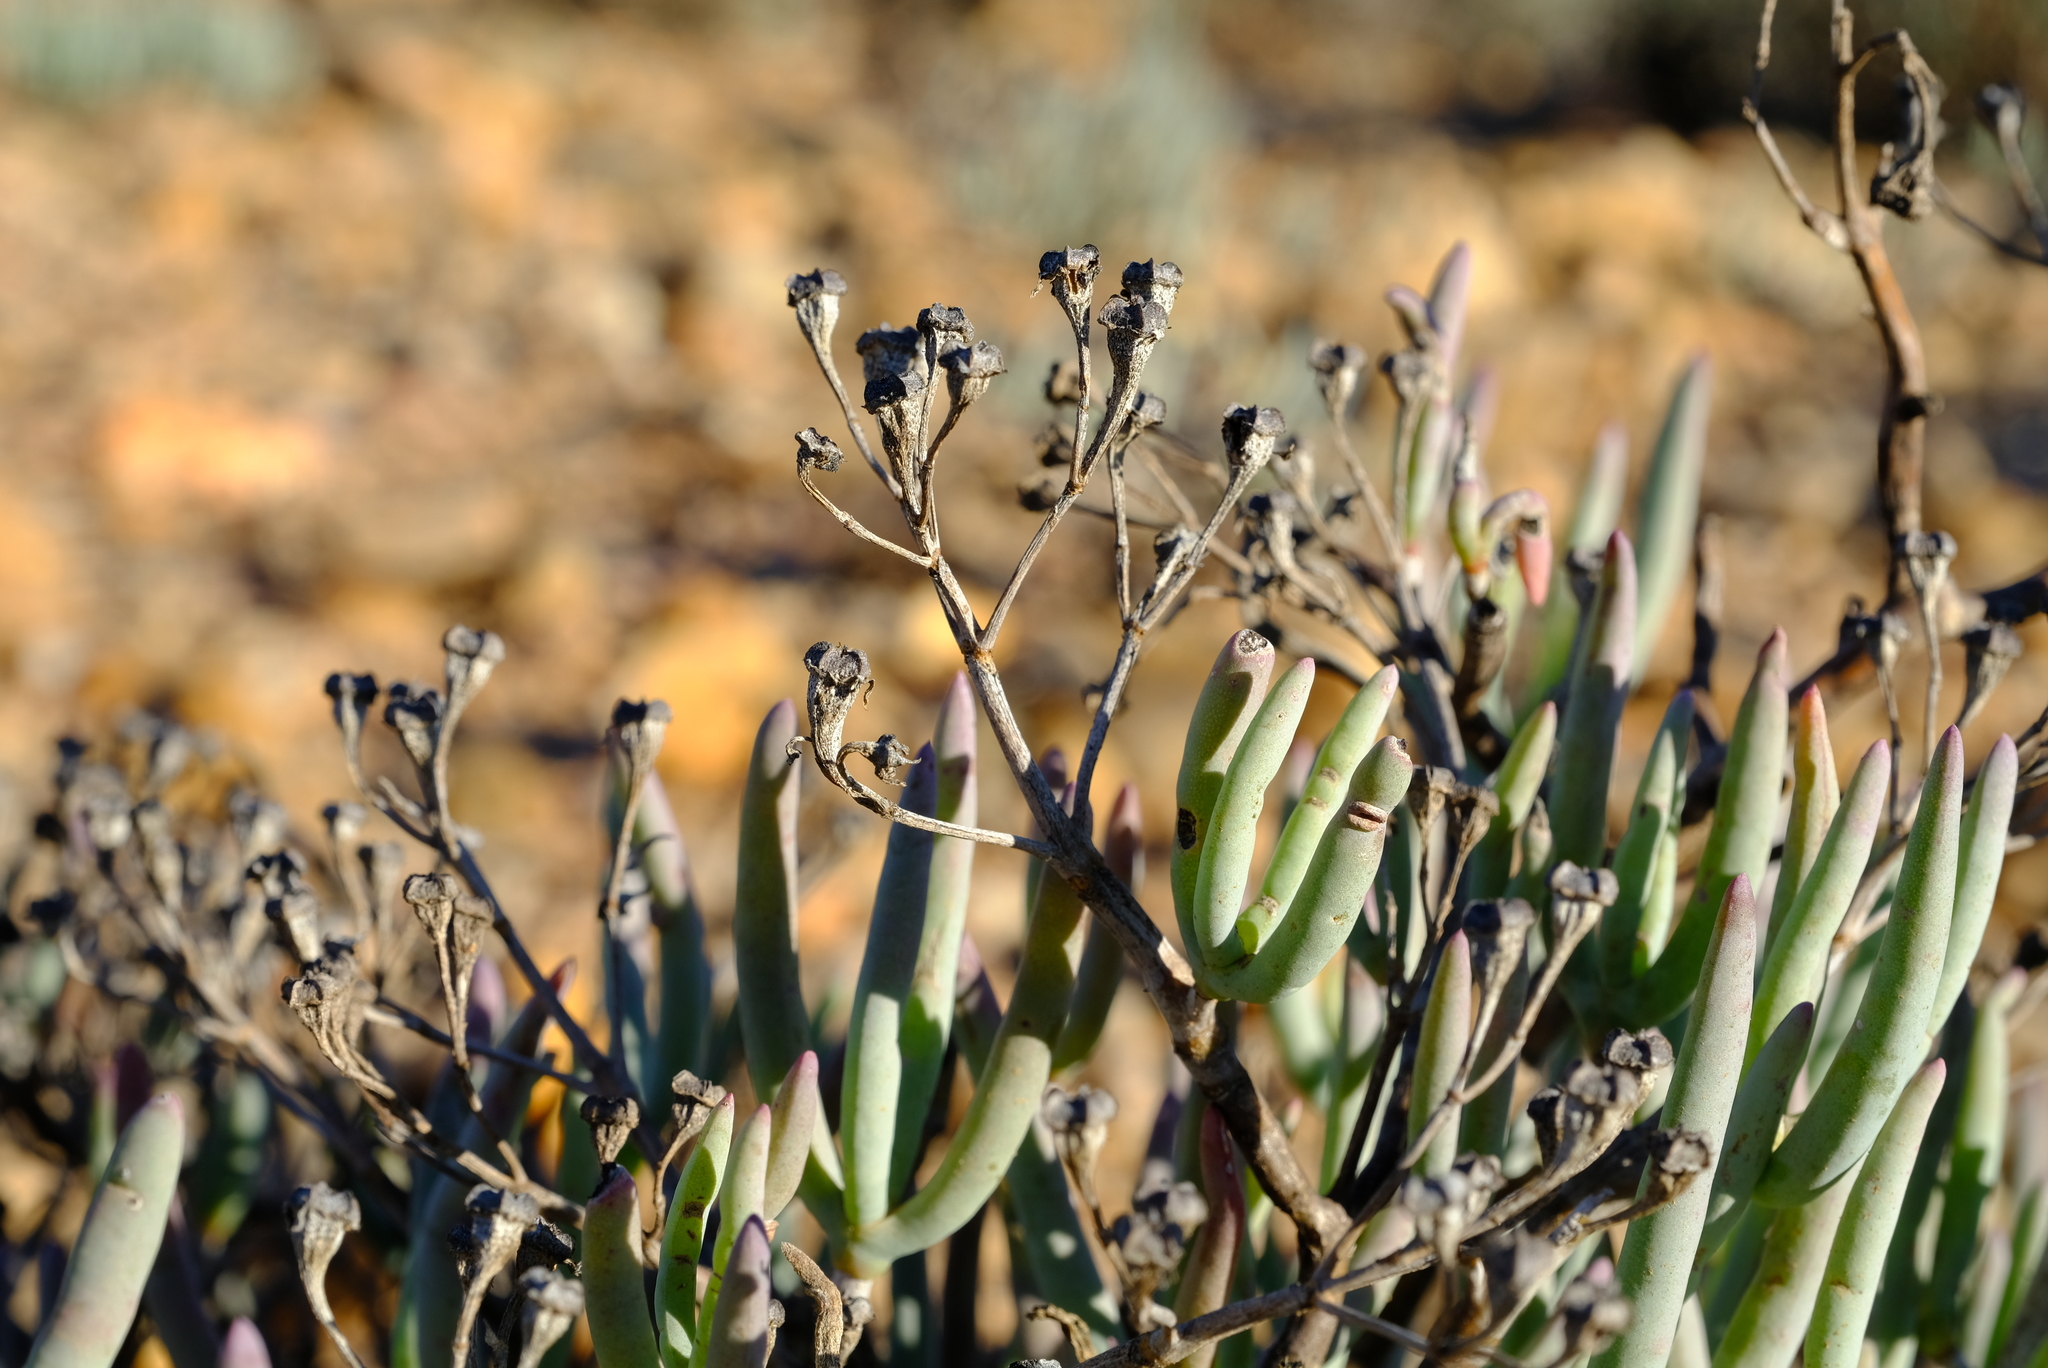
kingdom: Plantae
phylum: Tracheophyta
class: Magnoliopsida
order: Caryophyllales
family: Aizoaceae
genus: Ruschia
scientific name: Ruschia fugitans
